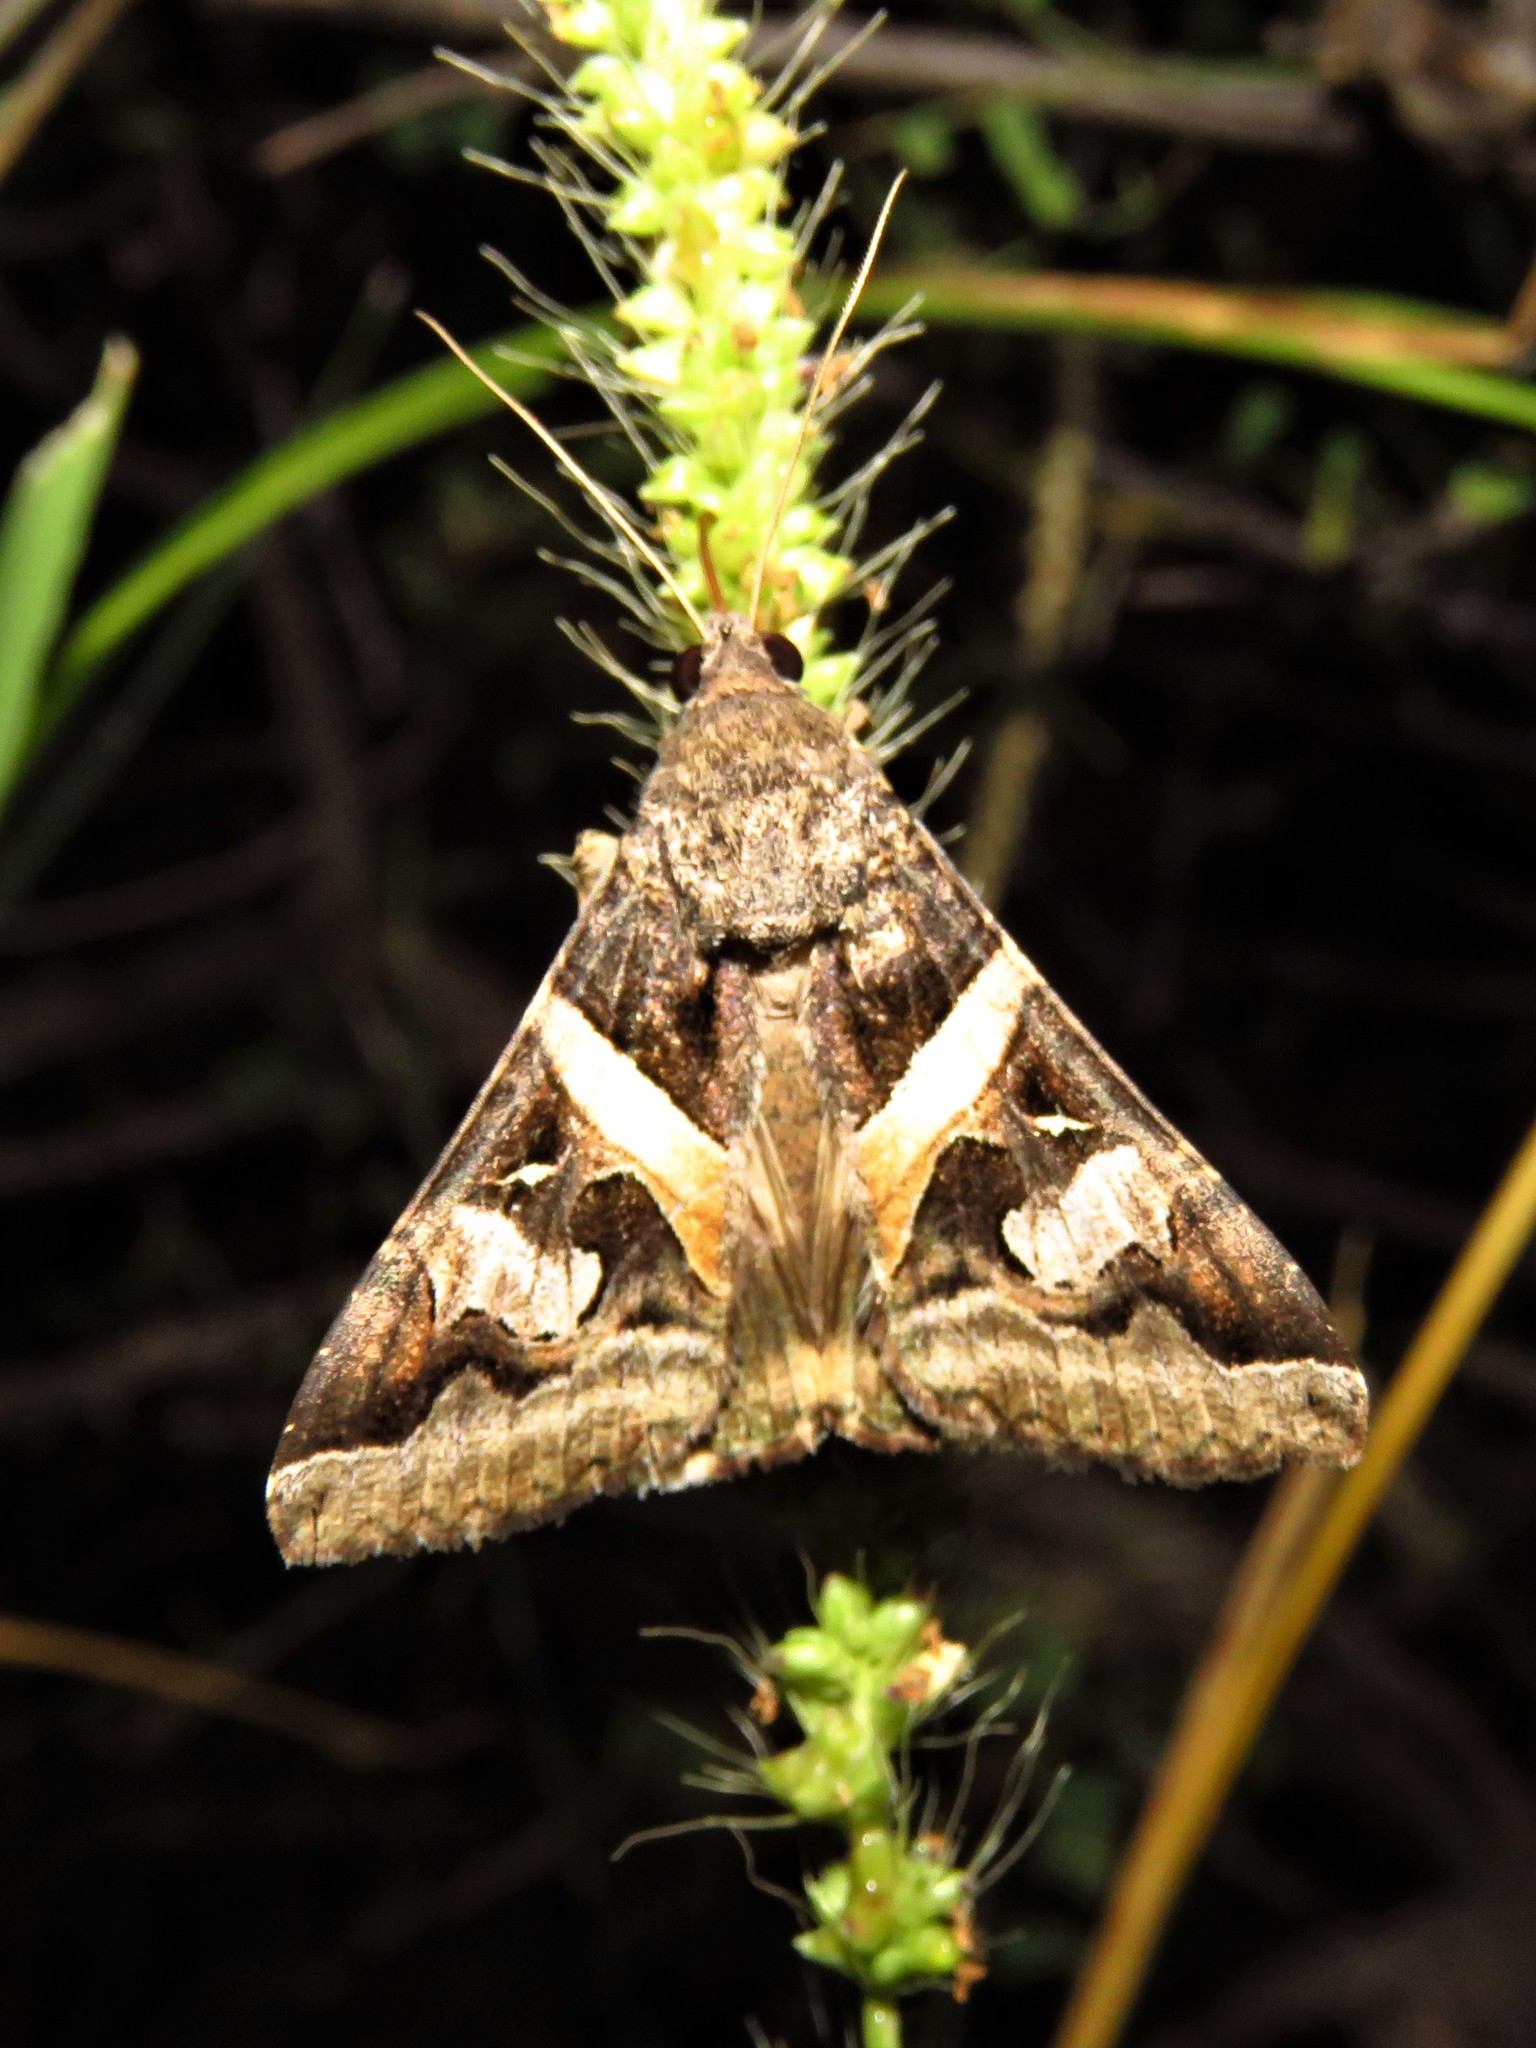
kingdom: Animalia
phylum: Arthropoda
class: Insecta
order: Lepidoptera
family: Erebidae
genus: Melipotis
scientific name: Melipotis indomita
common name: Moth
